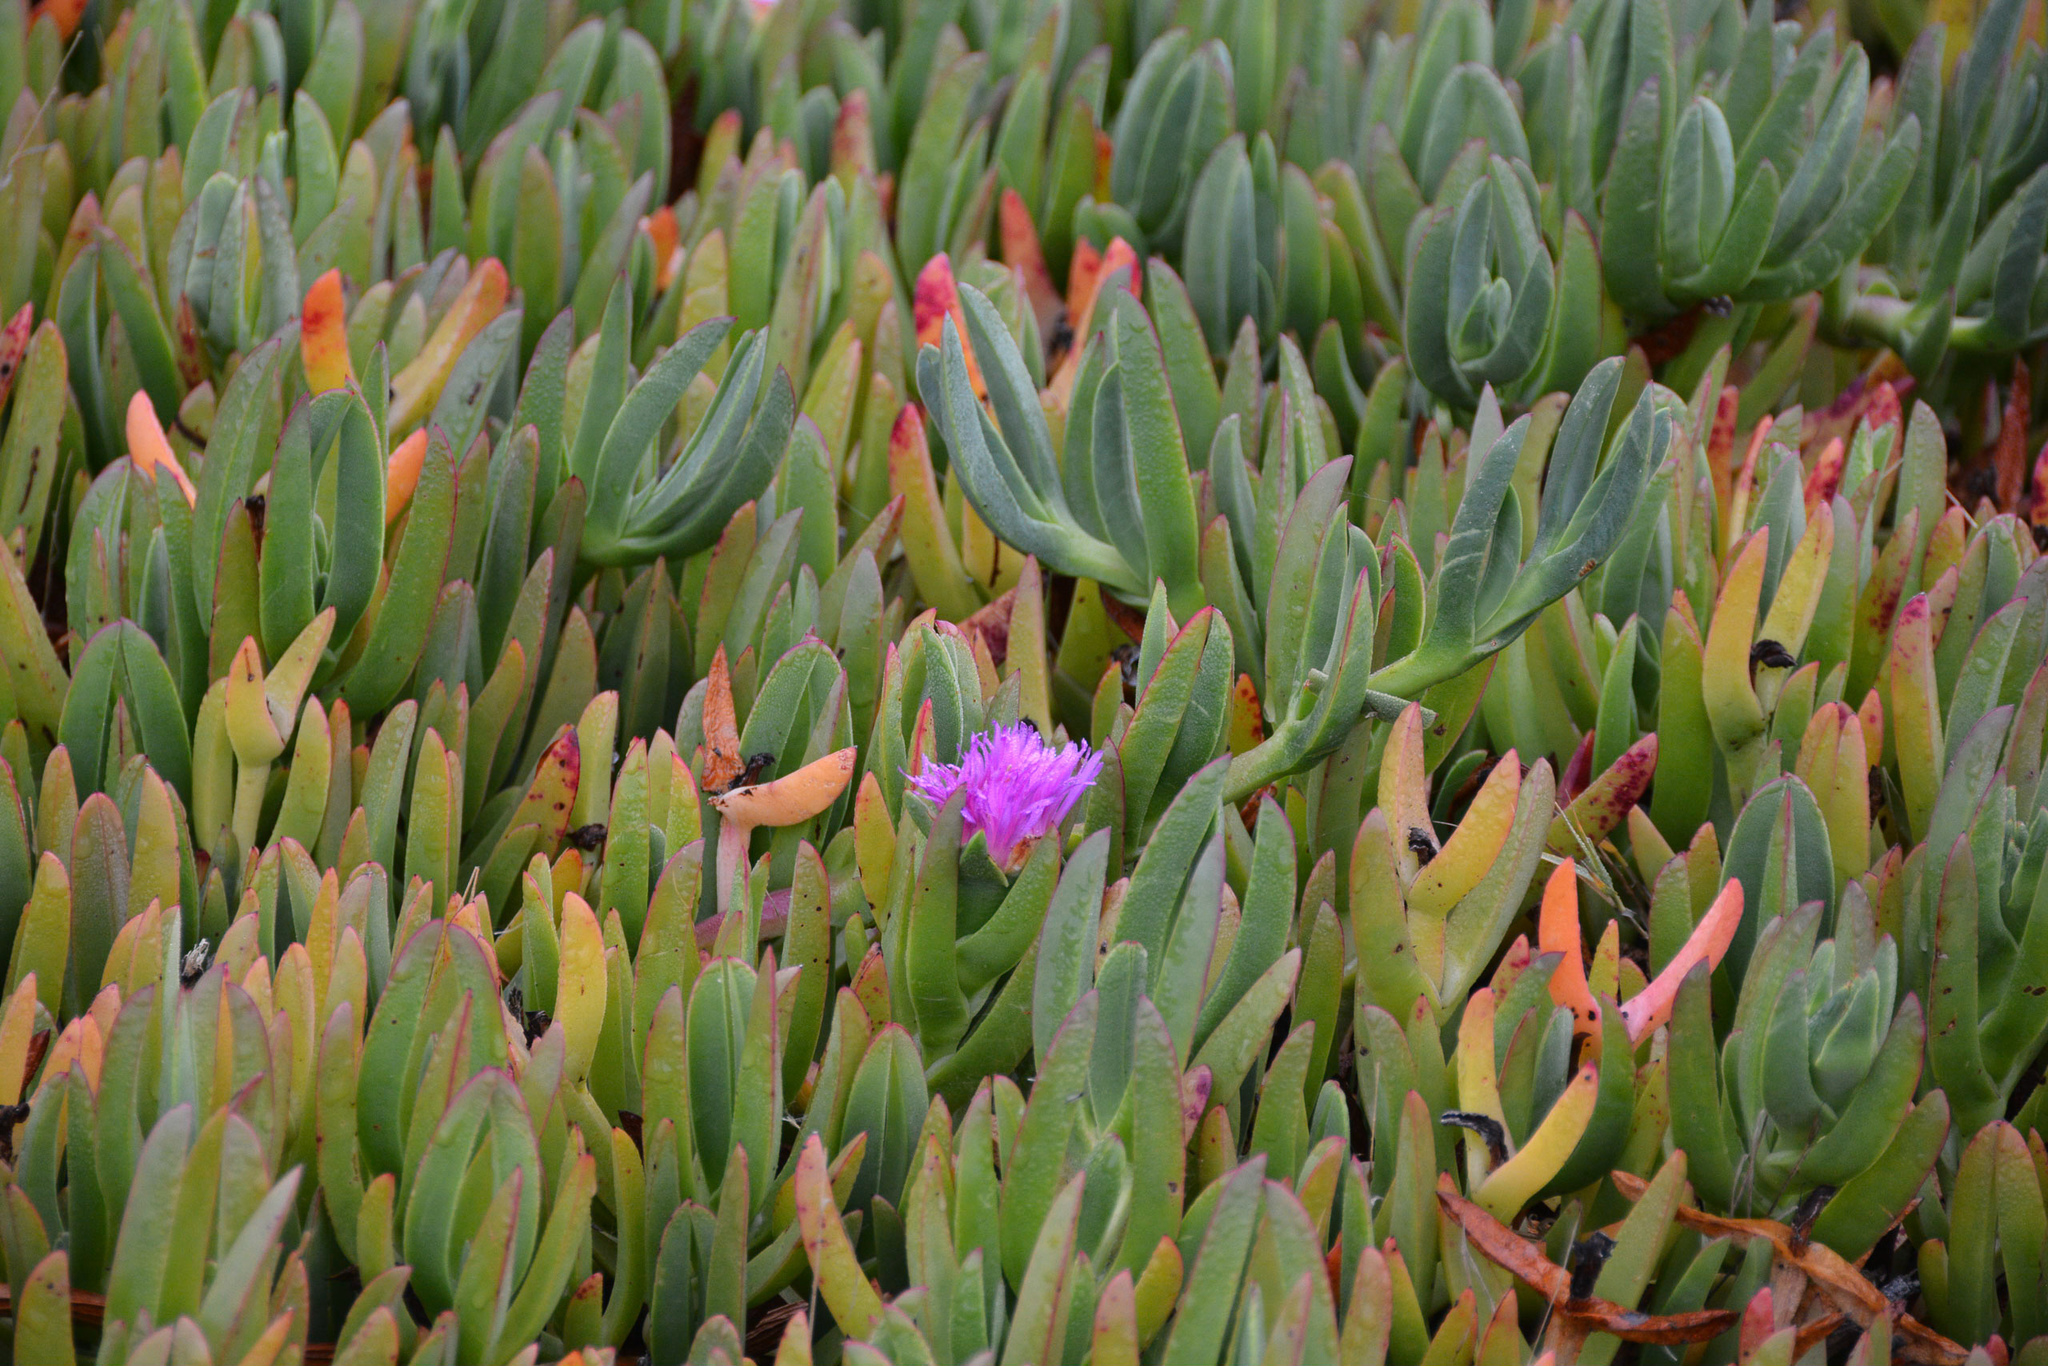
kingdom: Plantae
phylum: Tracheophyta
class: Magnoliopsida
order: Caryophyllales
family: Aizoaceae
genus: Carpobrotus
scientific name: Carpobrotus chilensis
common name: Sea fig
